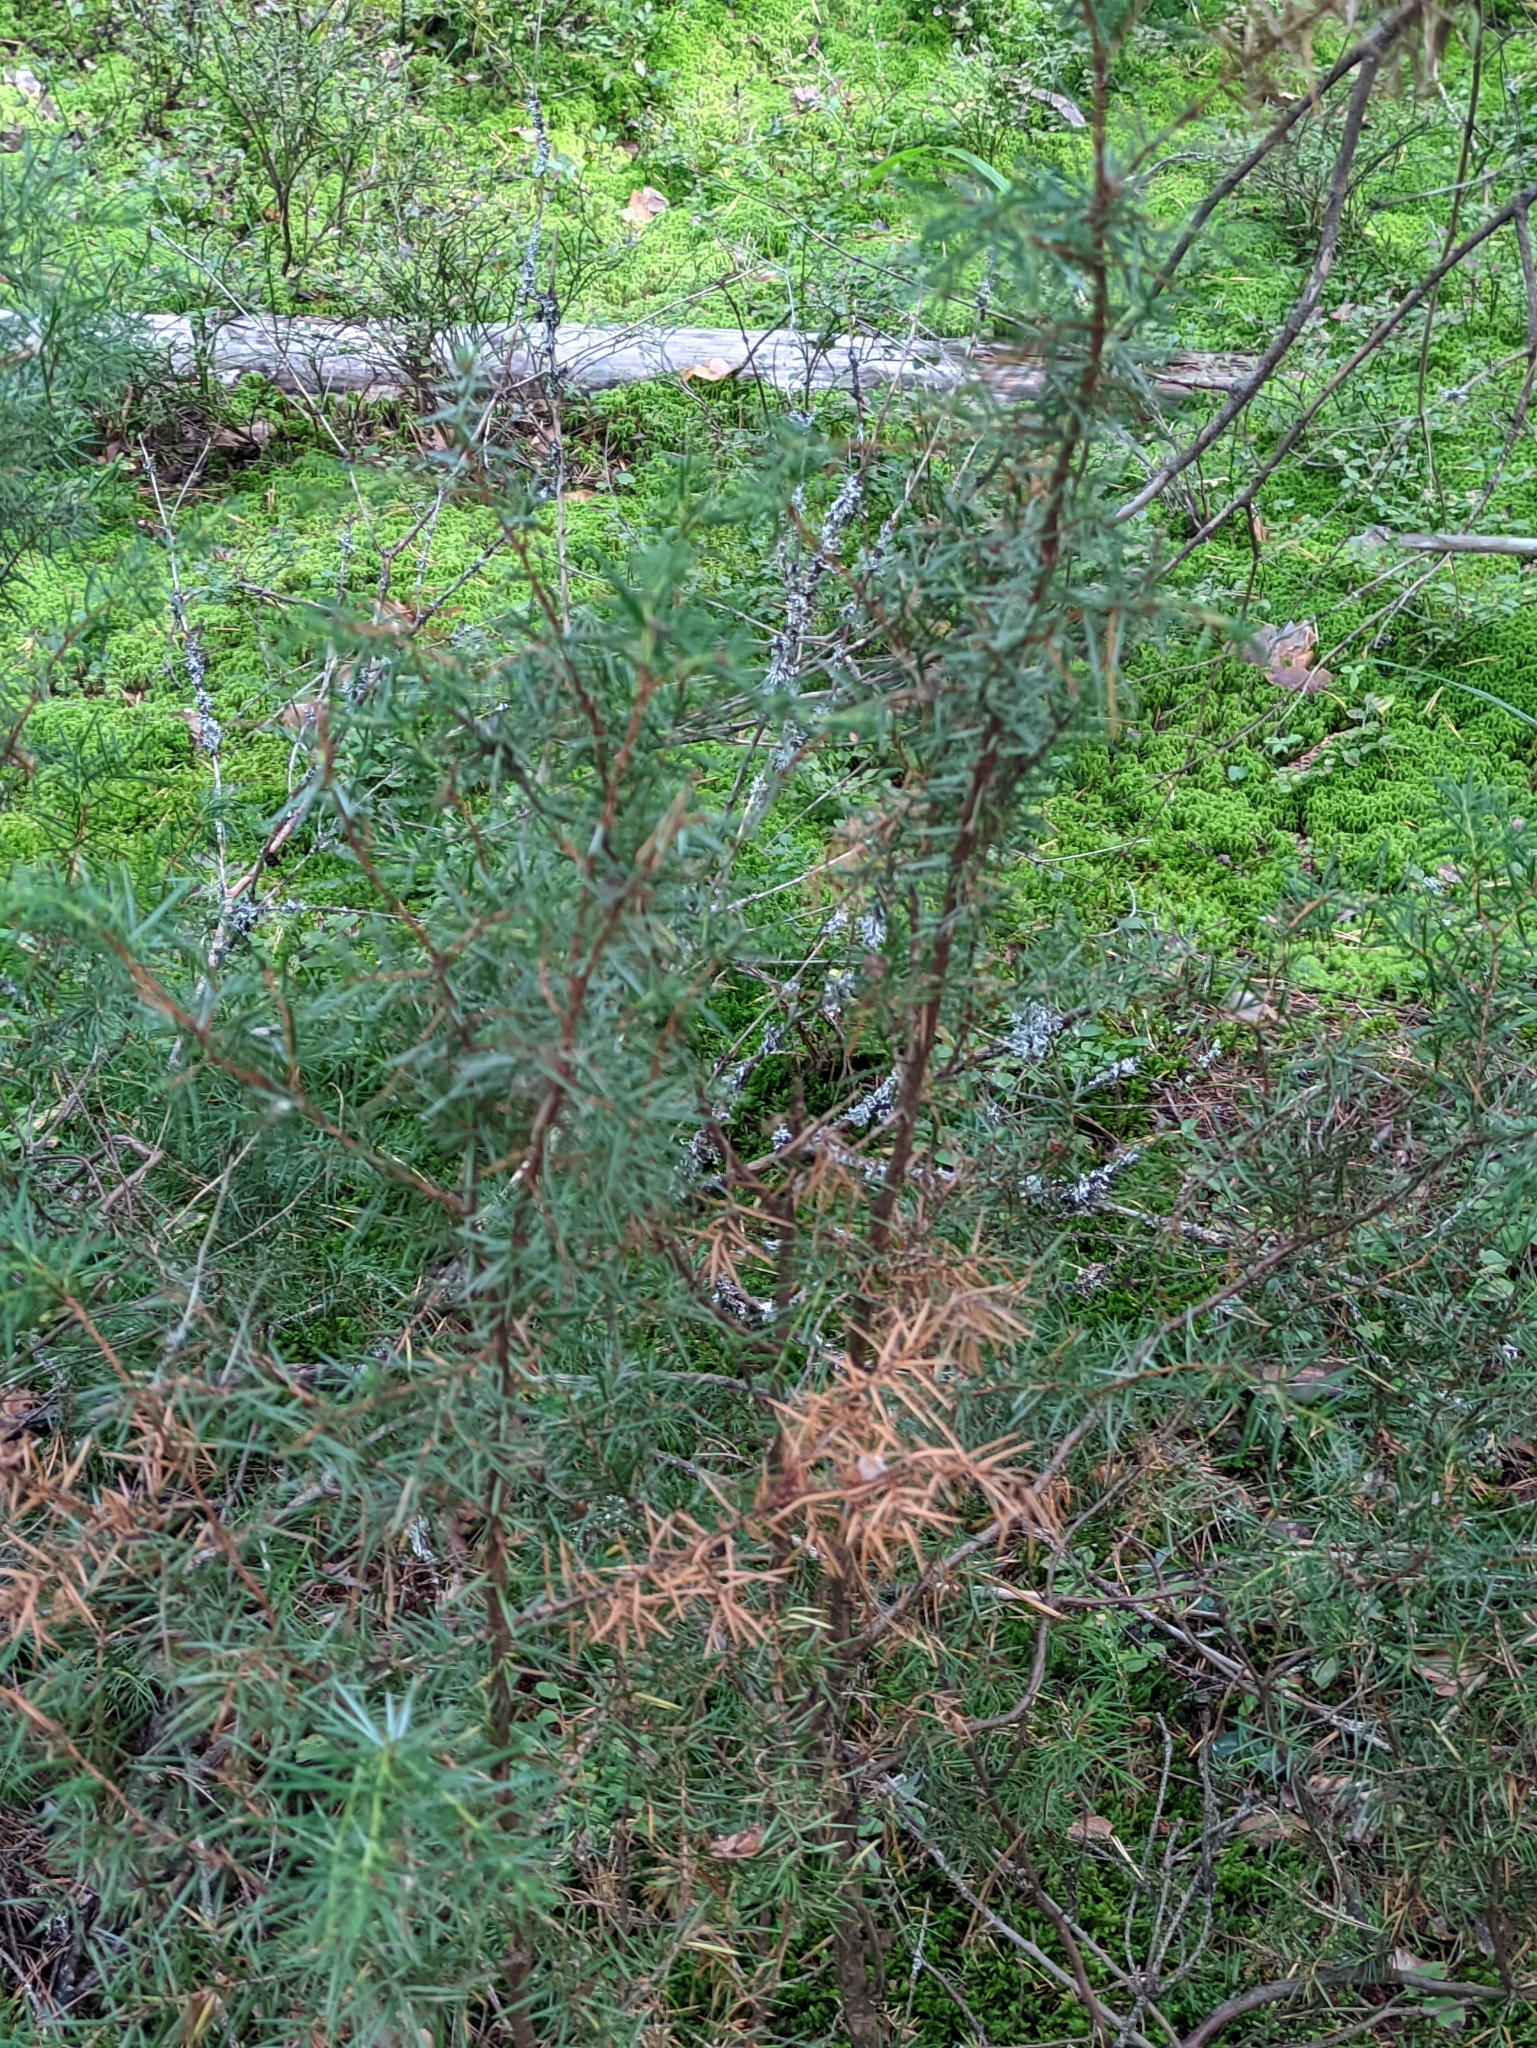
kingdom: Plantae
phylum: Tracheophyta
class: Pinopsida
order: Pinales
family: Cupressaceae
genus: Juniperus
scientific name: Juniperus communis
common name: Common juniper
